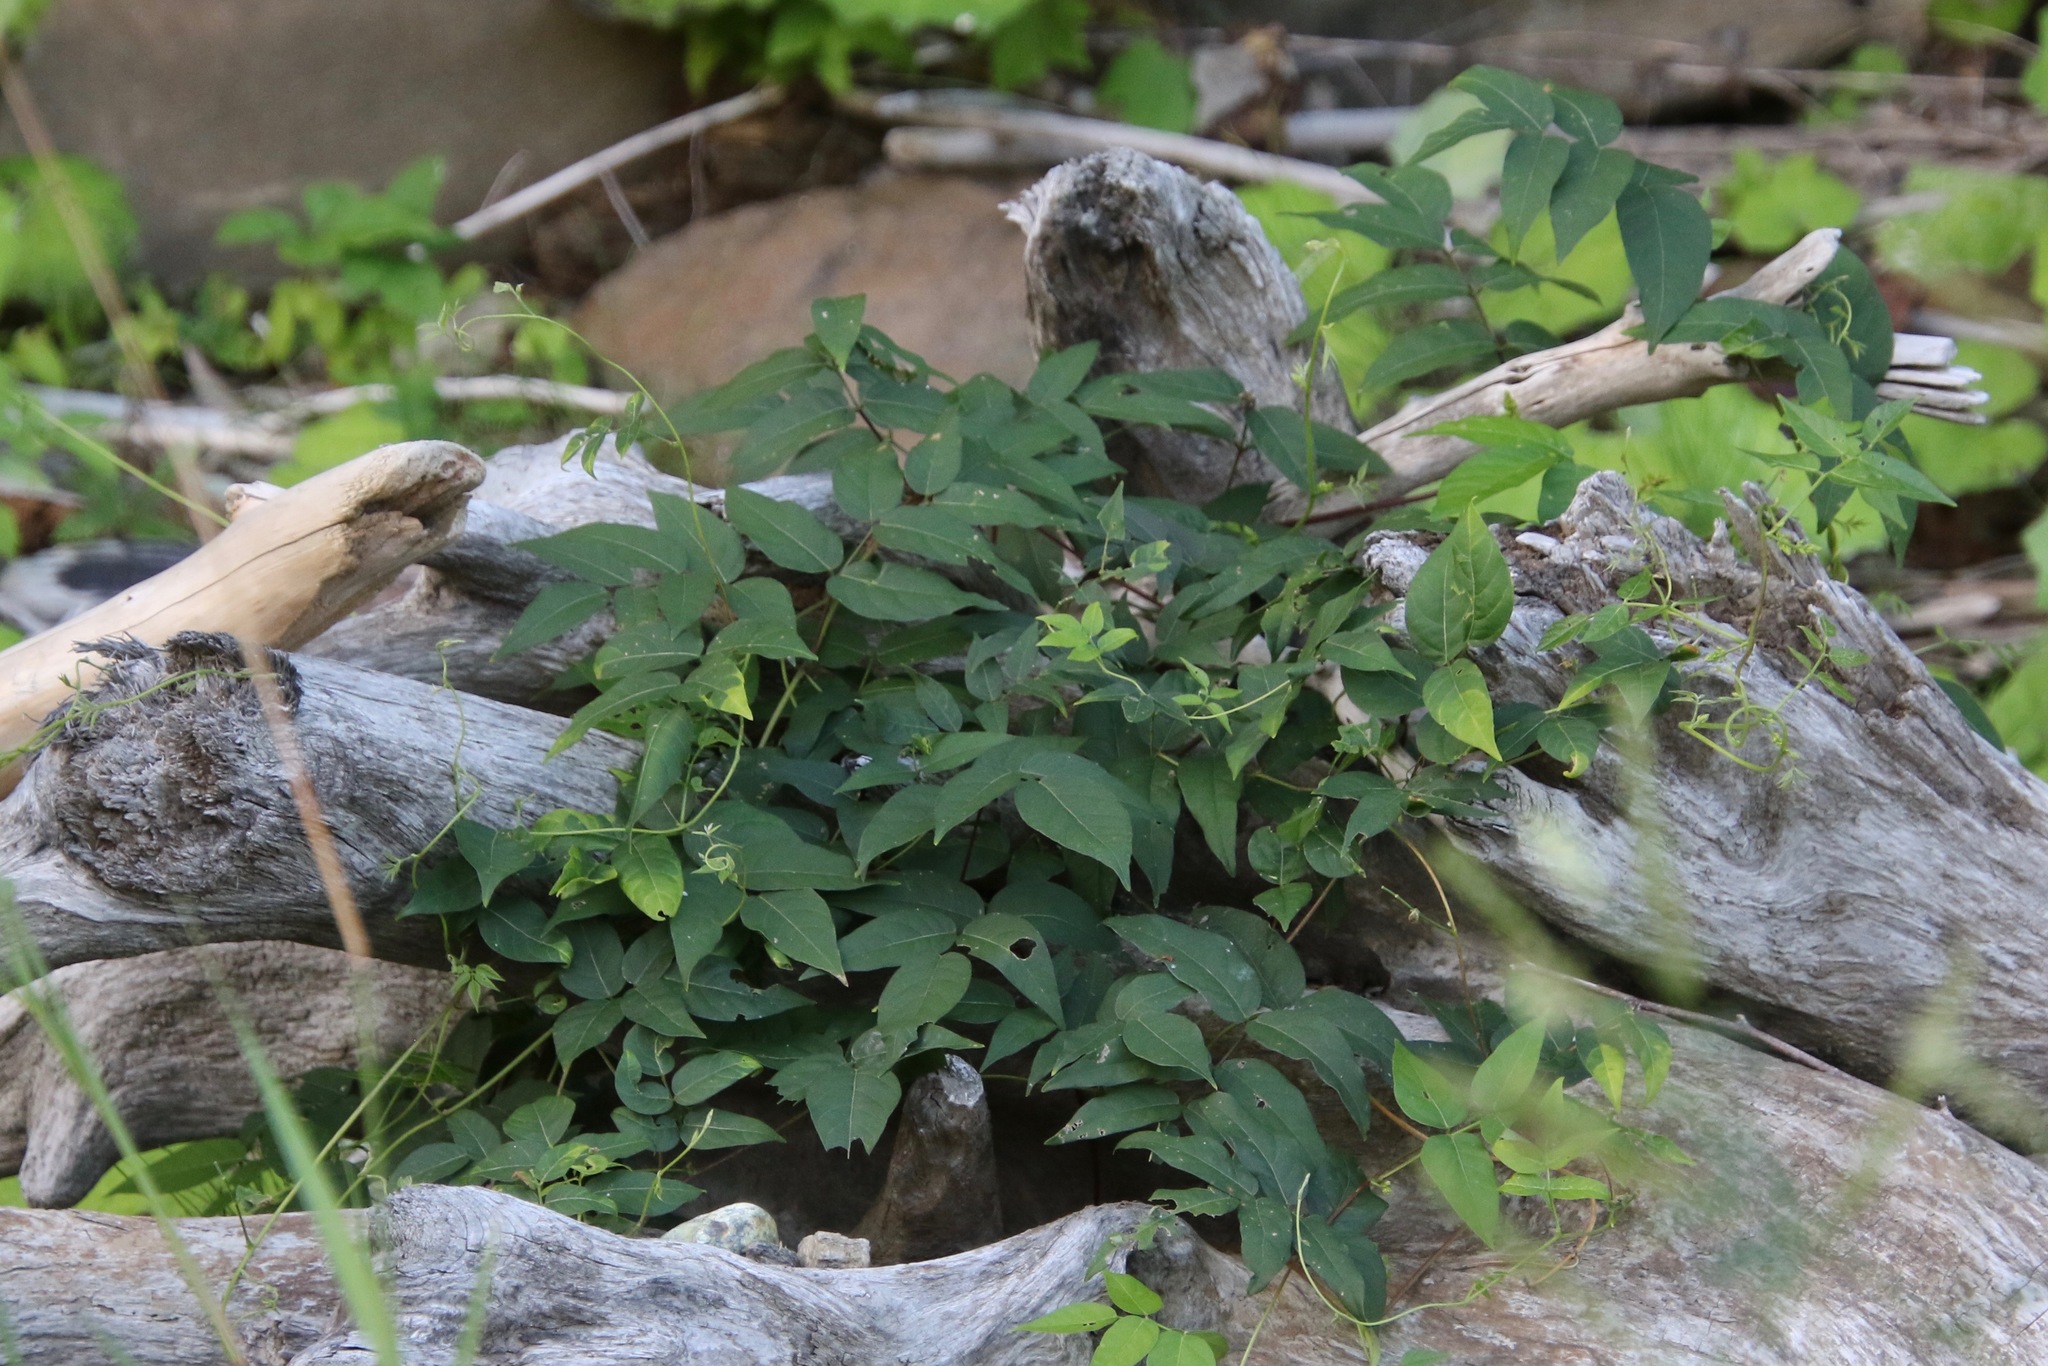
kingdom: Plantae
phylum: Tracheophyta
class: Magnoliopsida
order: Fabales
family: Fabaceae
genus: Apios
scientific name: Apios americana
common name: American potato-bean
